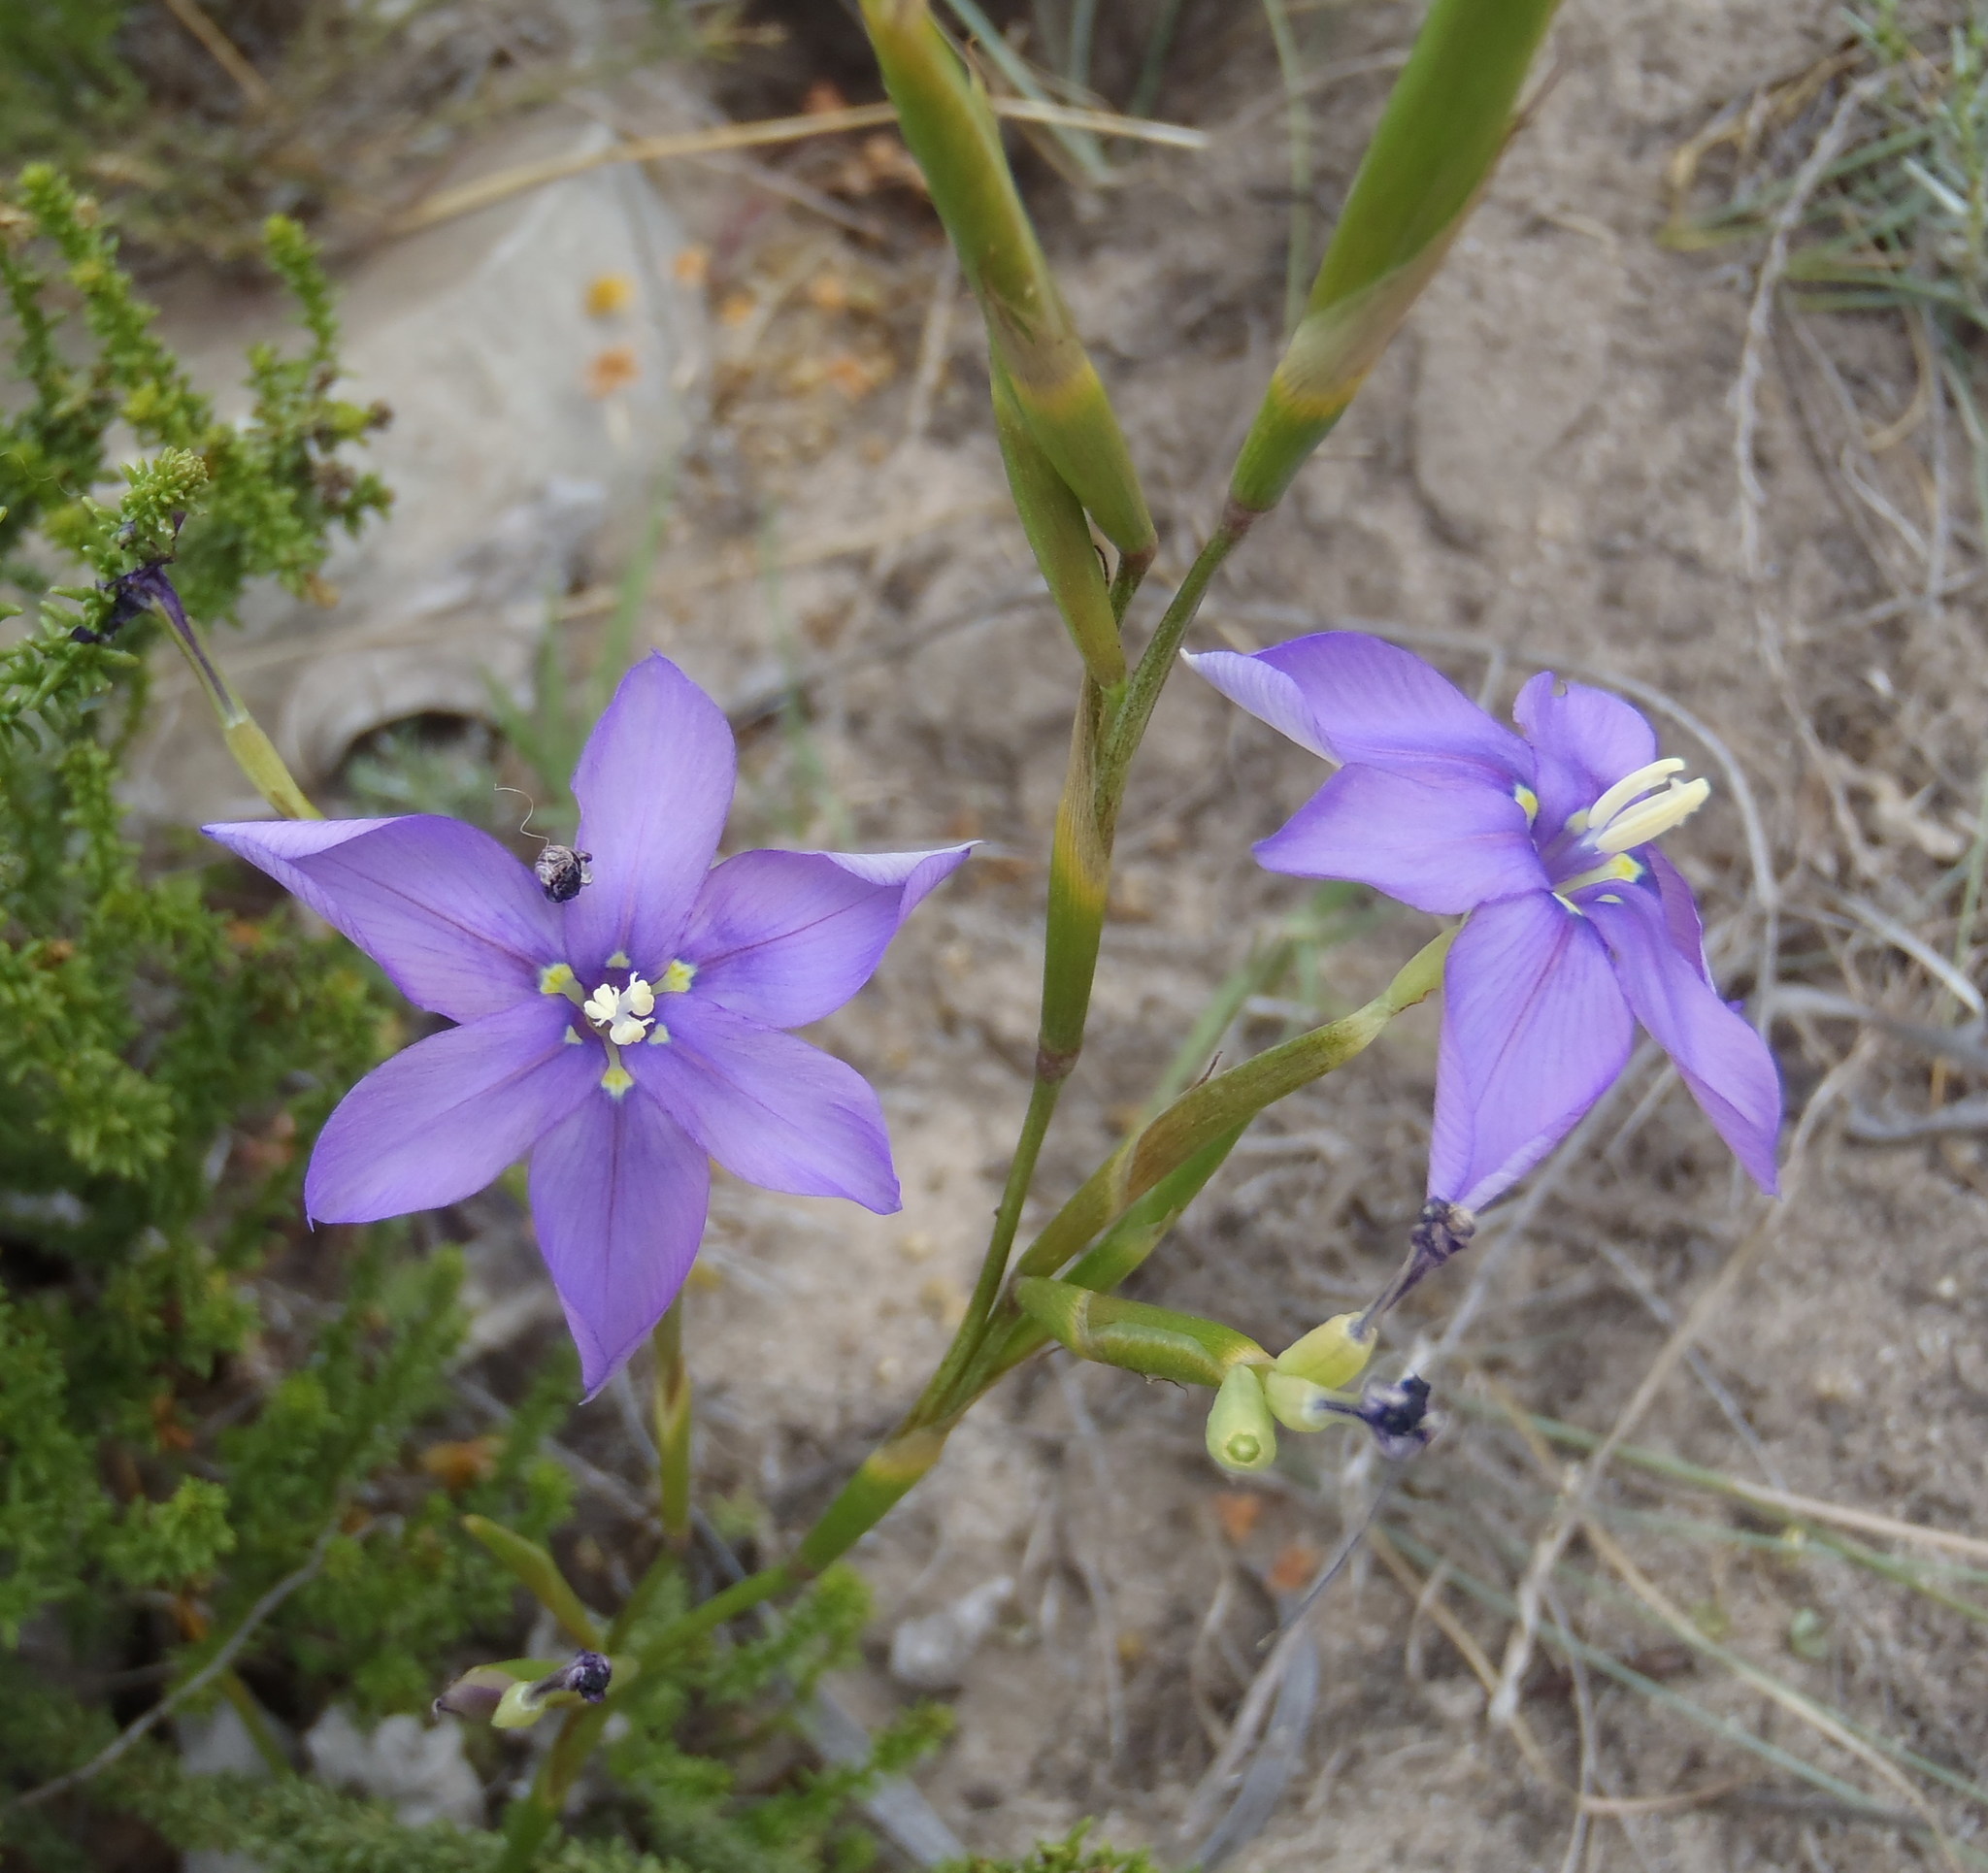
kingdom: Plantae
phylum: Tracheophyta
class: Liliopsida
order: Asparagales
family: Iridaceae
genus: Moraea
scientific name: Moraea polyanthos
